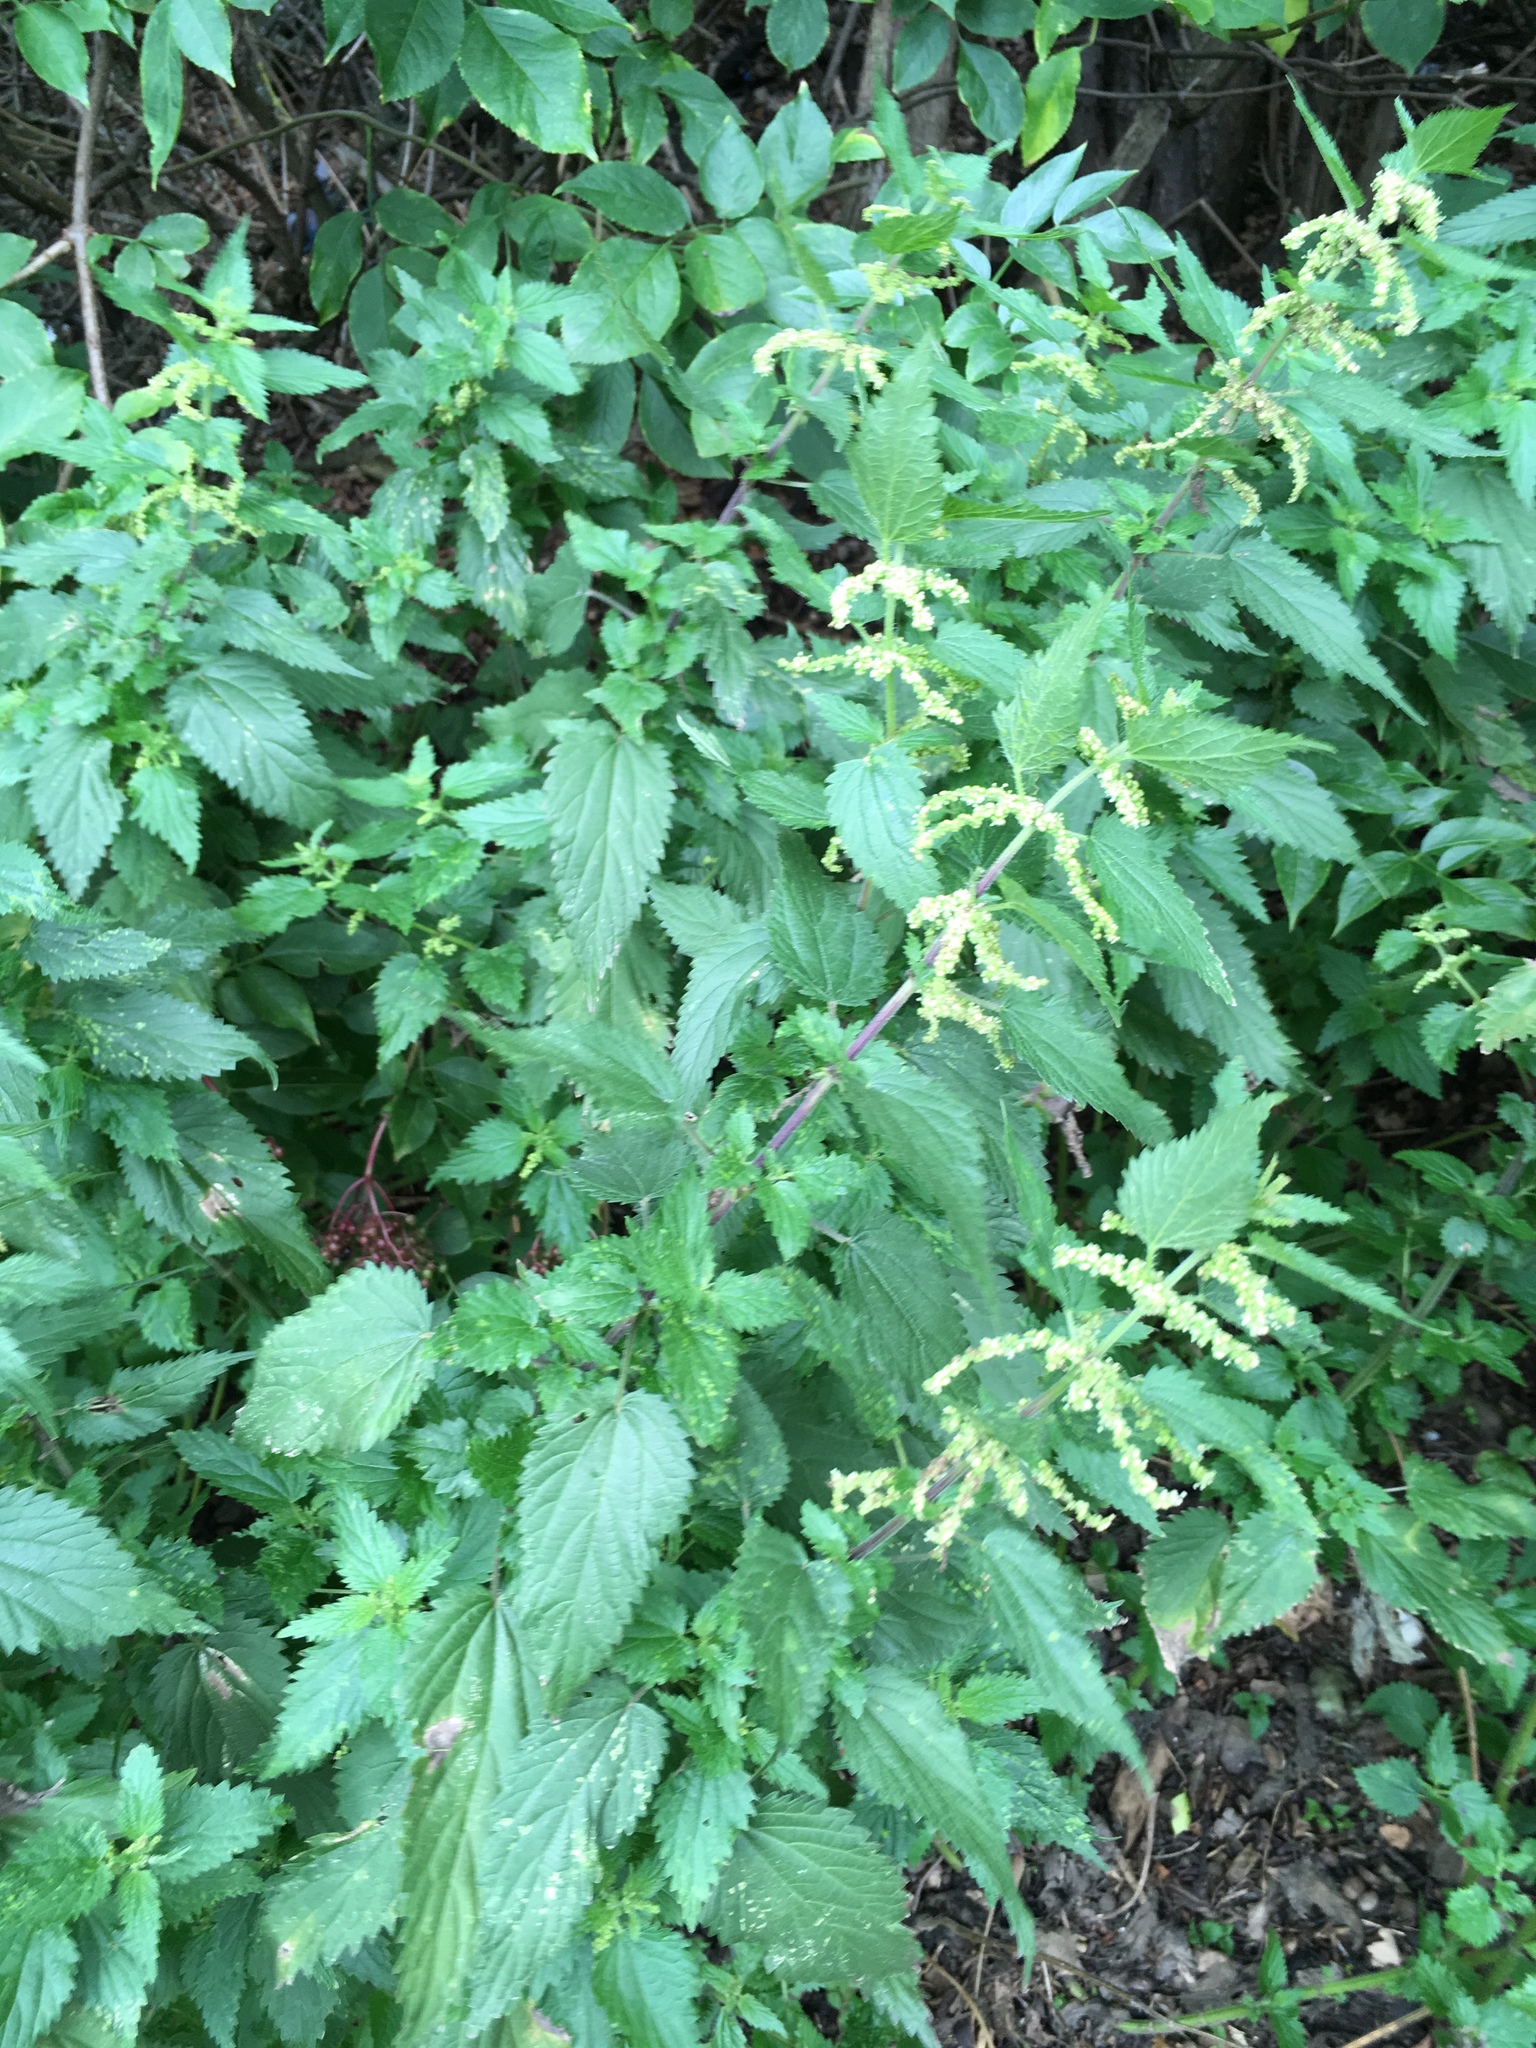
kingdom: Plantae
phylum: Tracheophyta
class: Magnoliopsida
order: Rosales
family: Urticaceae
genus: Urtica
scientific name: Urtica dioica
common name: Common nettle
